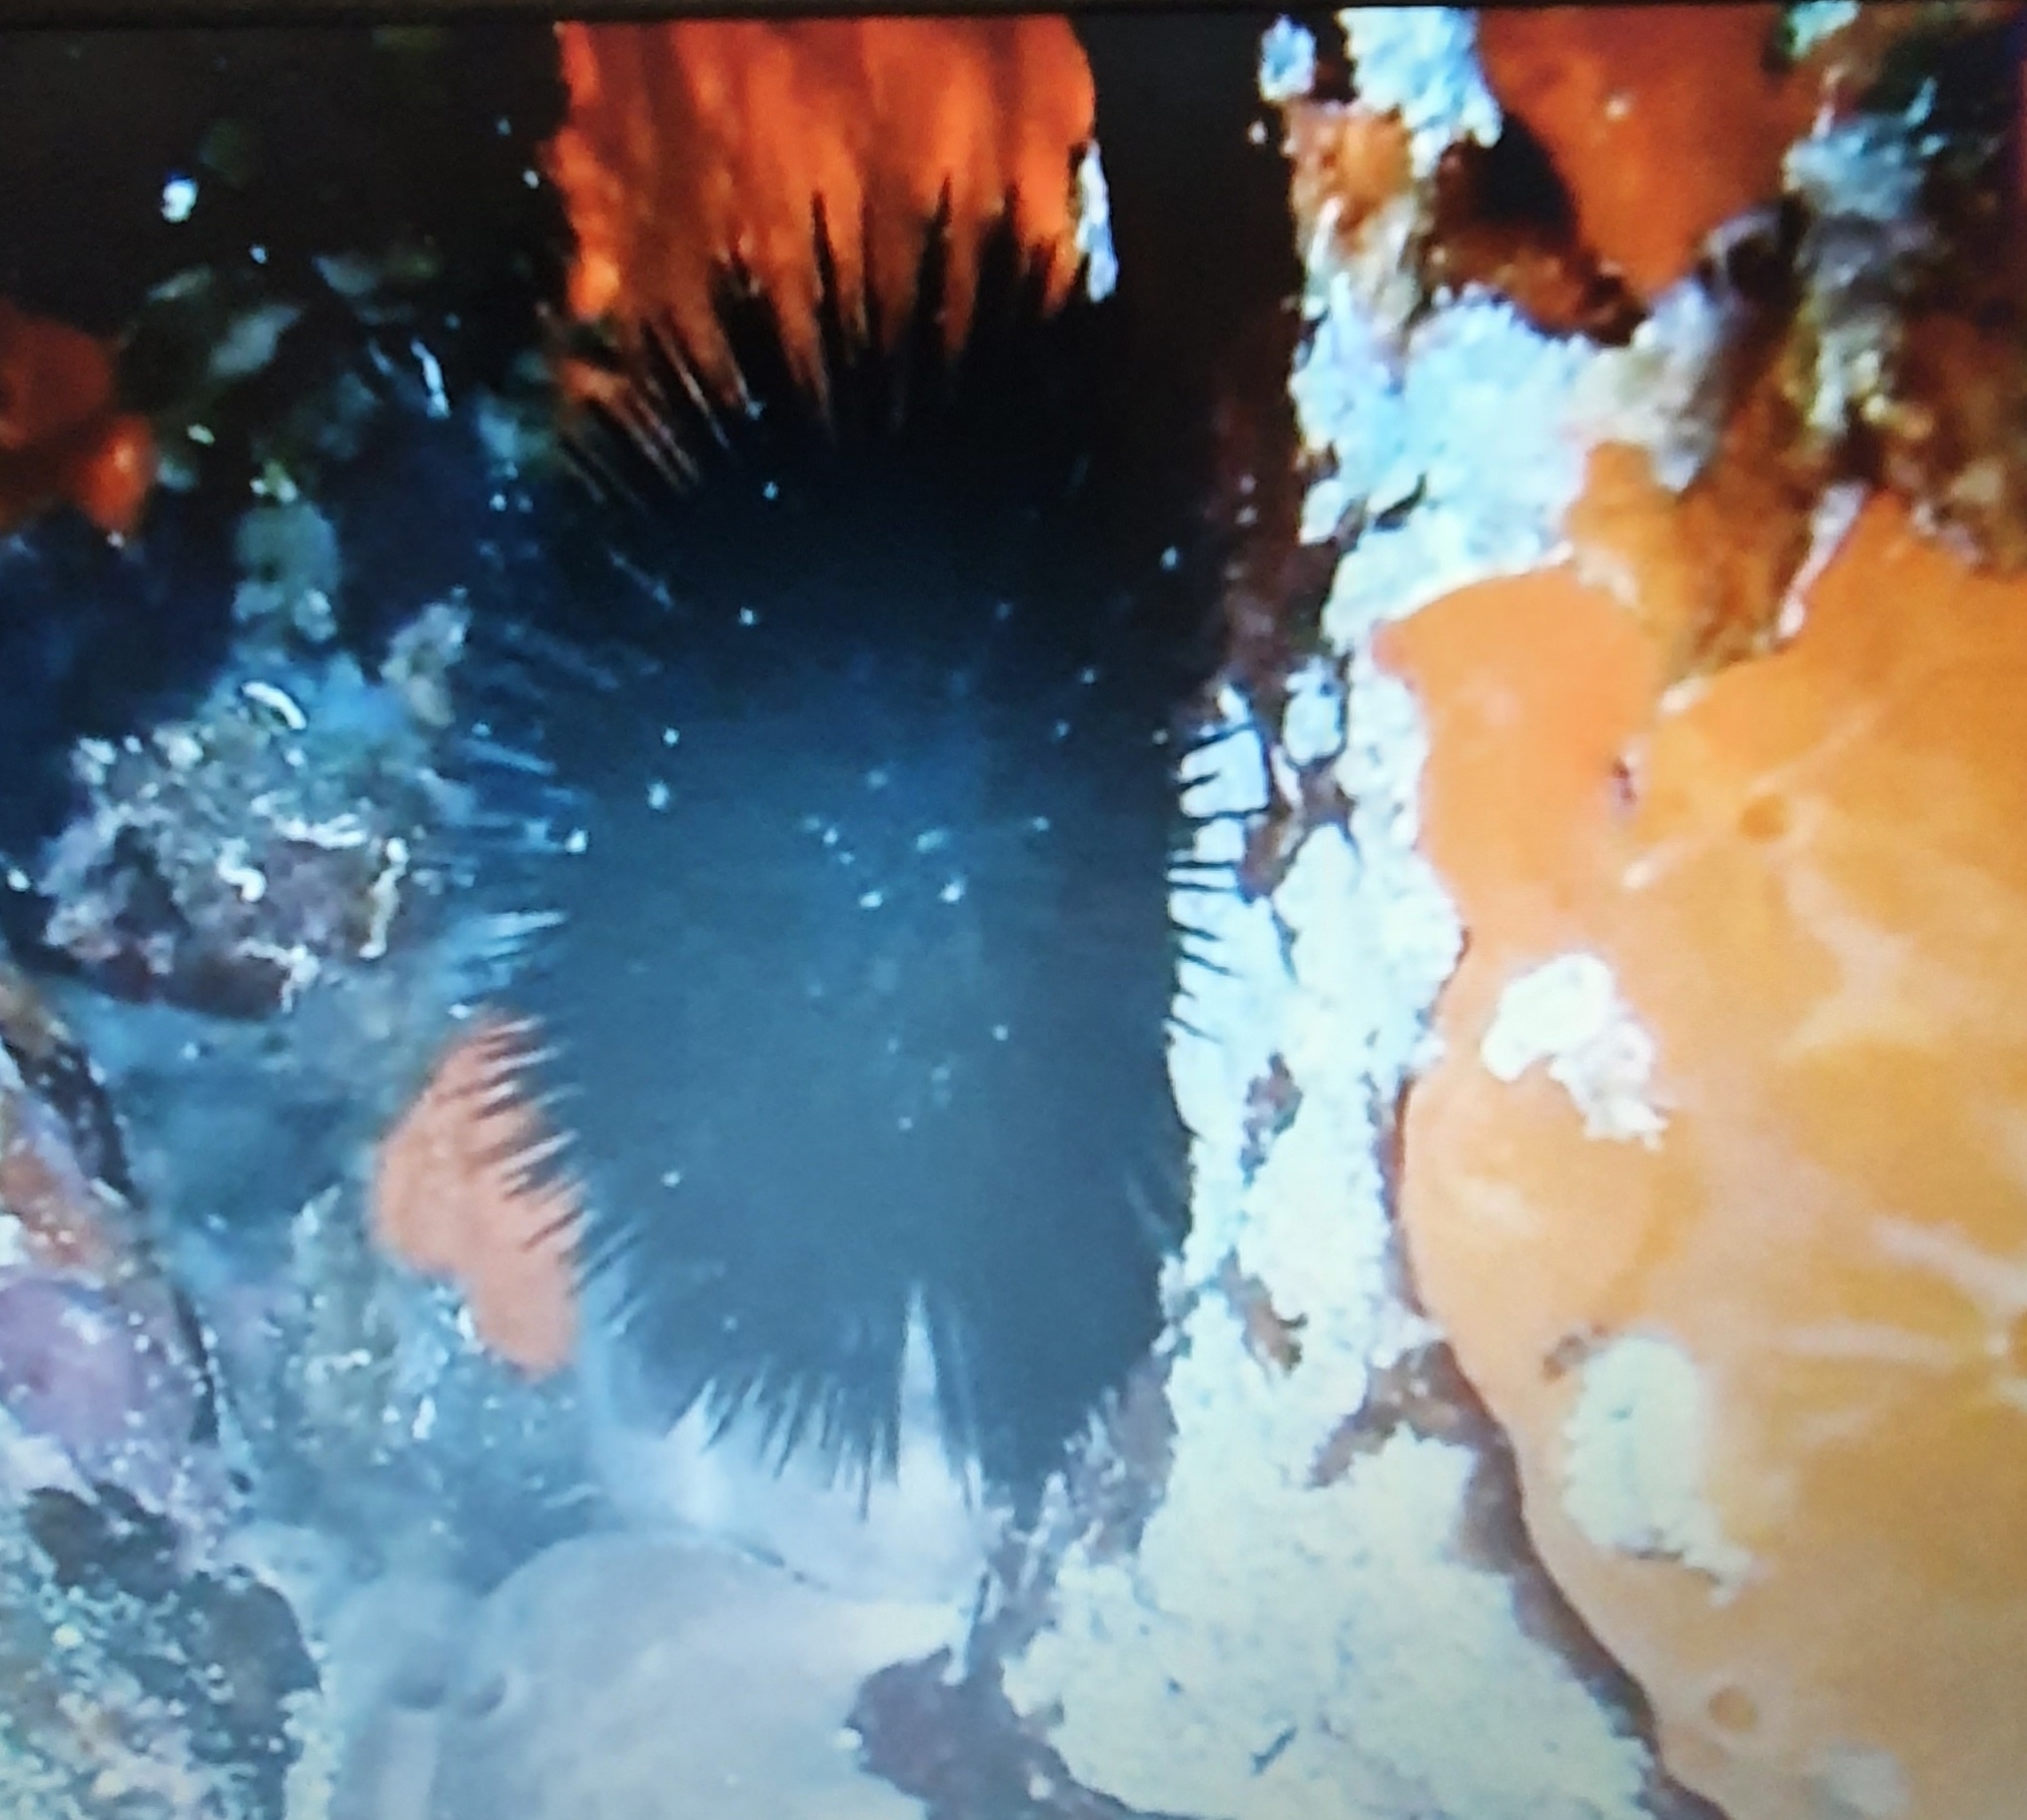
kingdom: Animalia
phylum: Echinodermata
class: Echinoidea
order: Arbacioida
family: Arbaciidae
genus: Arbacia
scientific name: Arbacia lixula
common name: Black sea urchin
